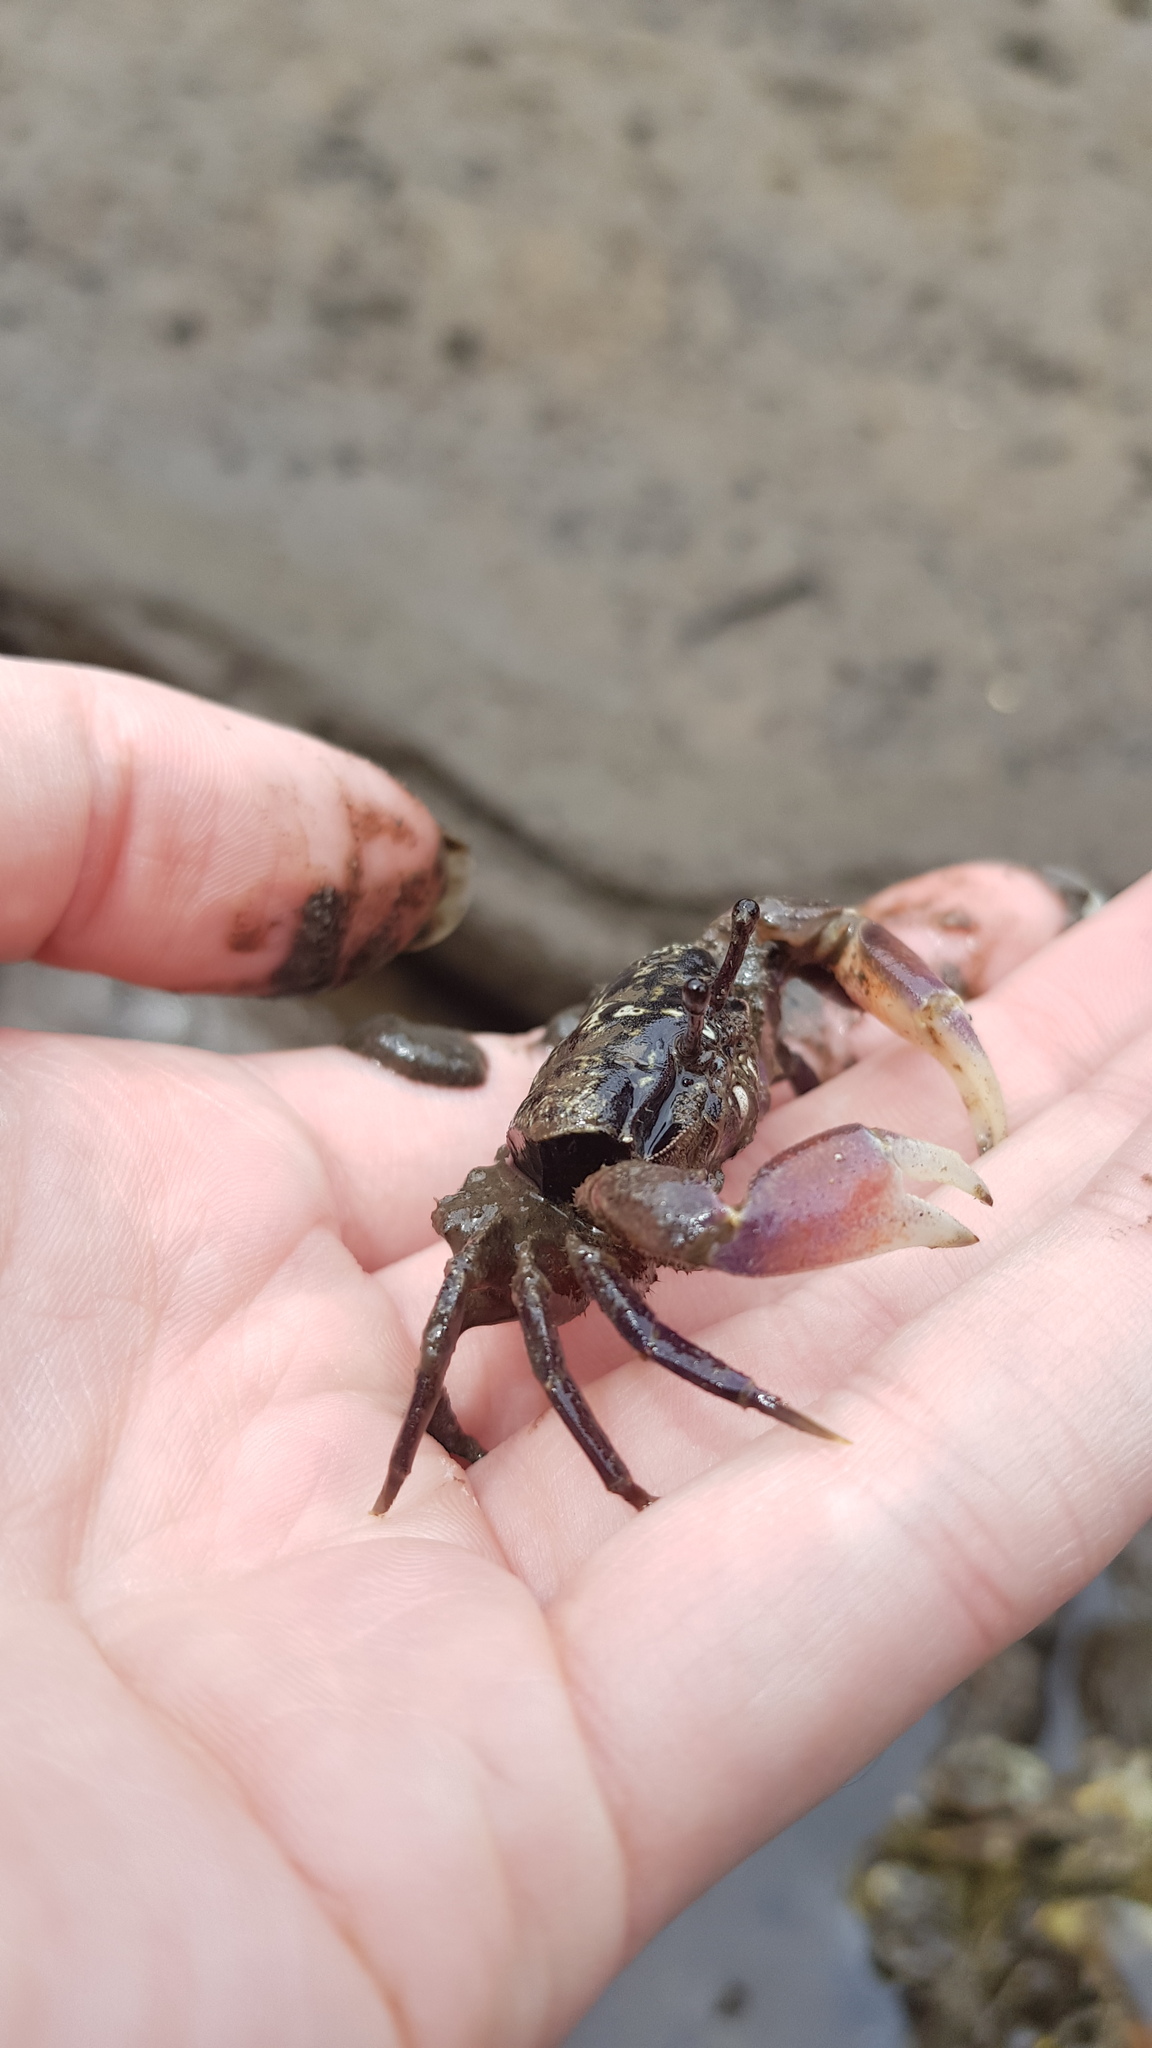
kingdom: Animalia
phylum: Arthropoda
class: Malacostraca
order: Decapoda
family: Heloeciidae
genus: Heloecius
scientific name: Heloecius cordiformis
